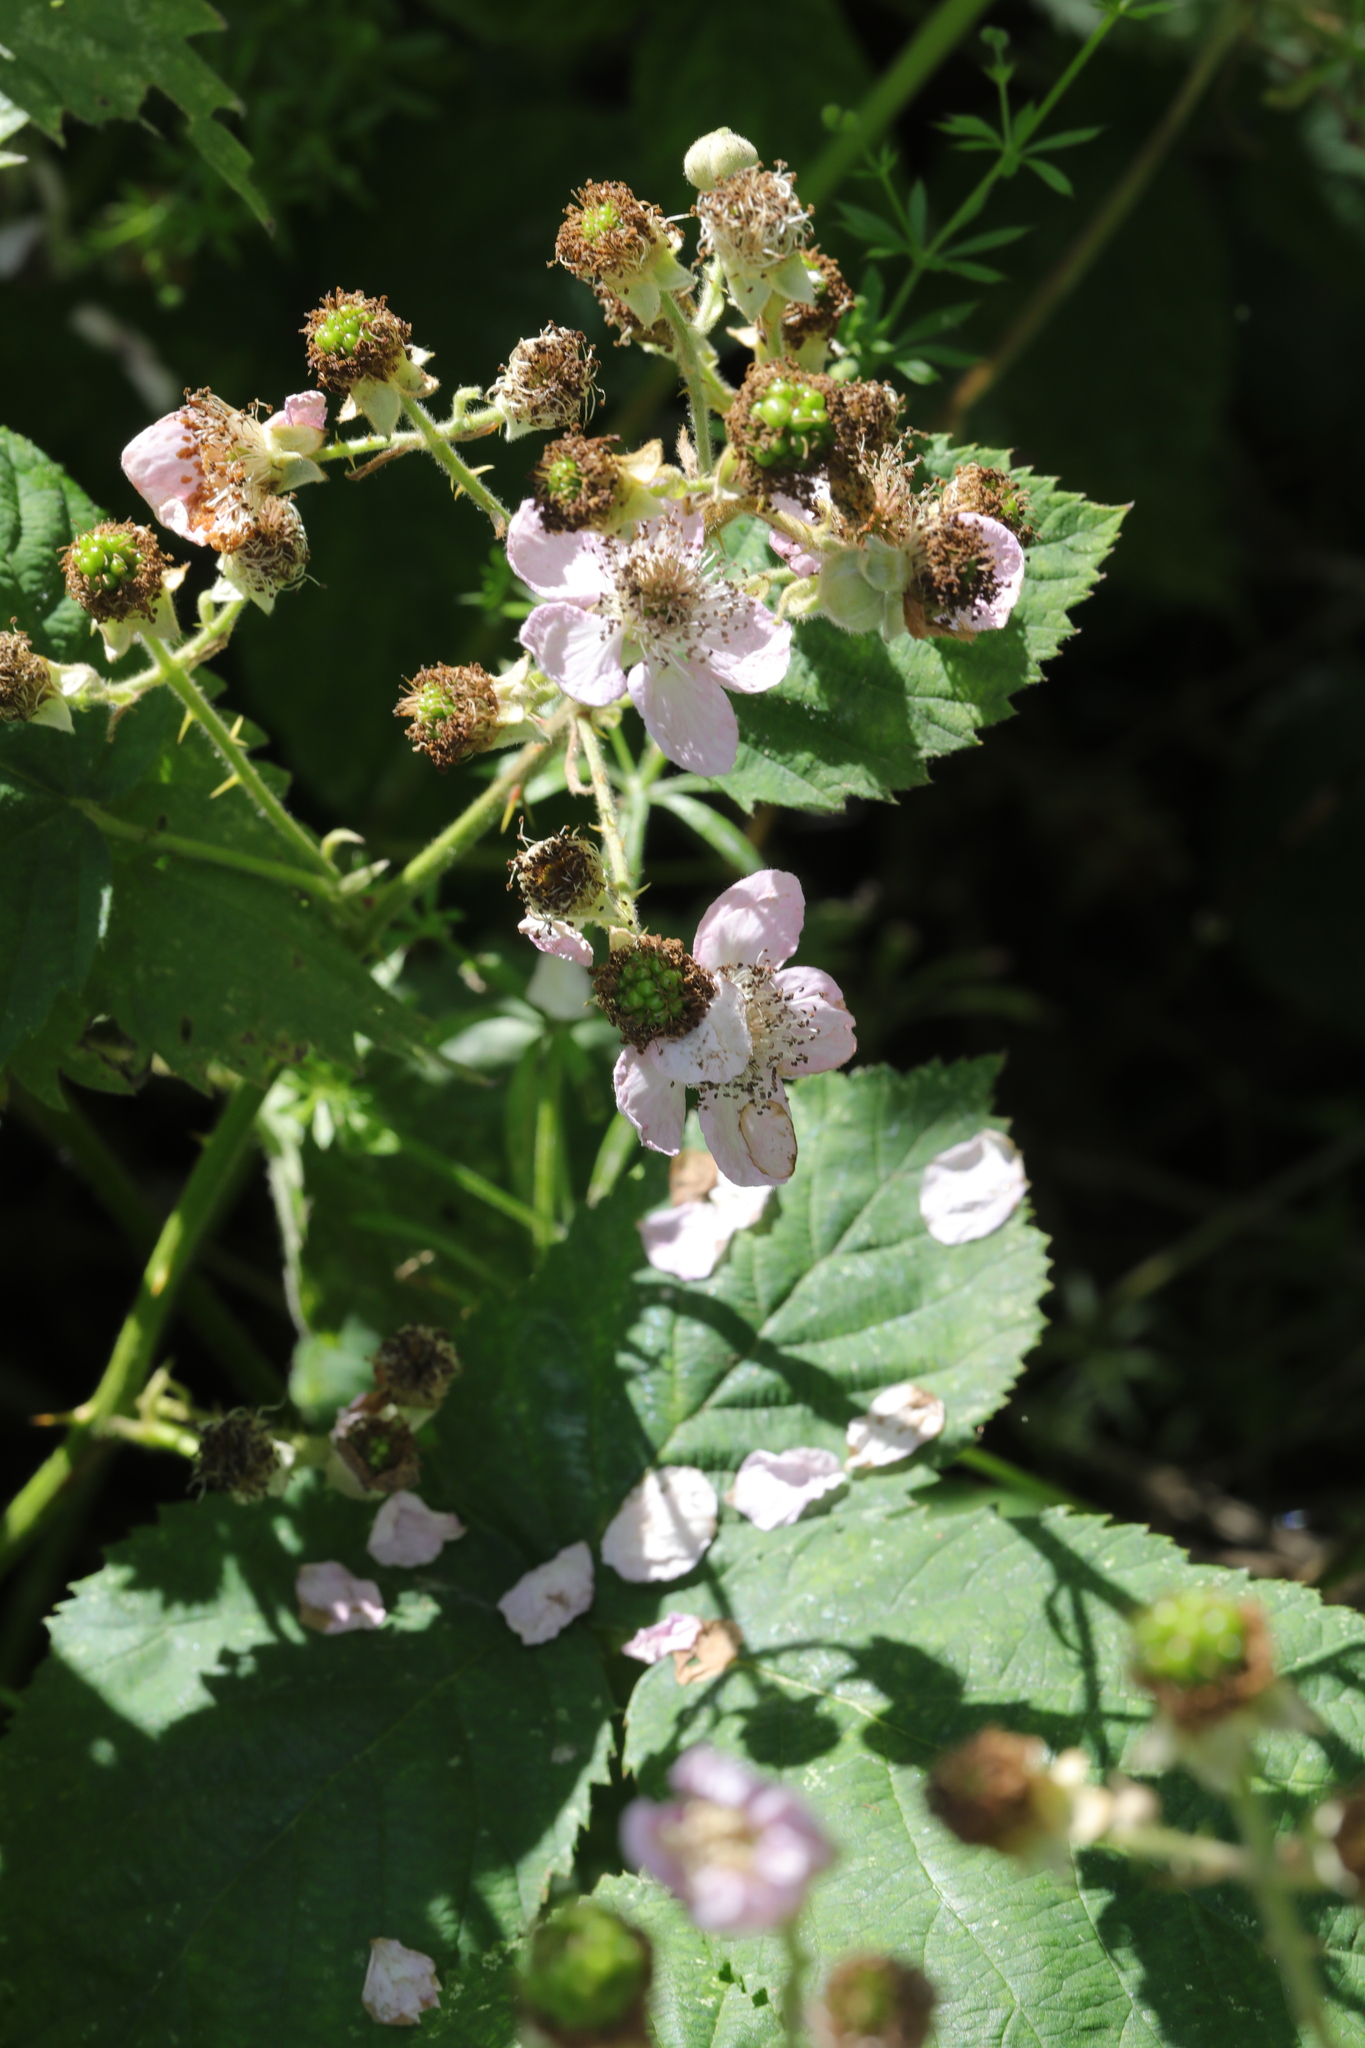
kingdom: Plantae
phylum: Tracheophyta
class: Magnoliopsida
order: Rosales
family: Rosaceae
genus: Rubus
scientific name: Rubus armeniacus
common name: Himalayan blackberry
